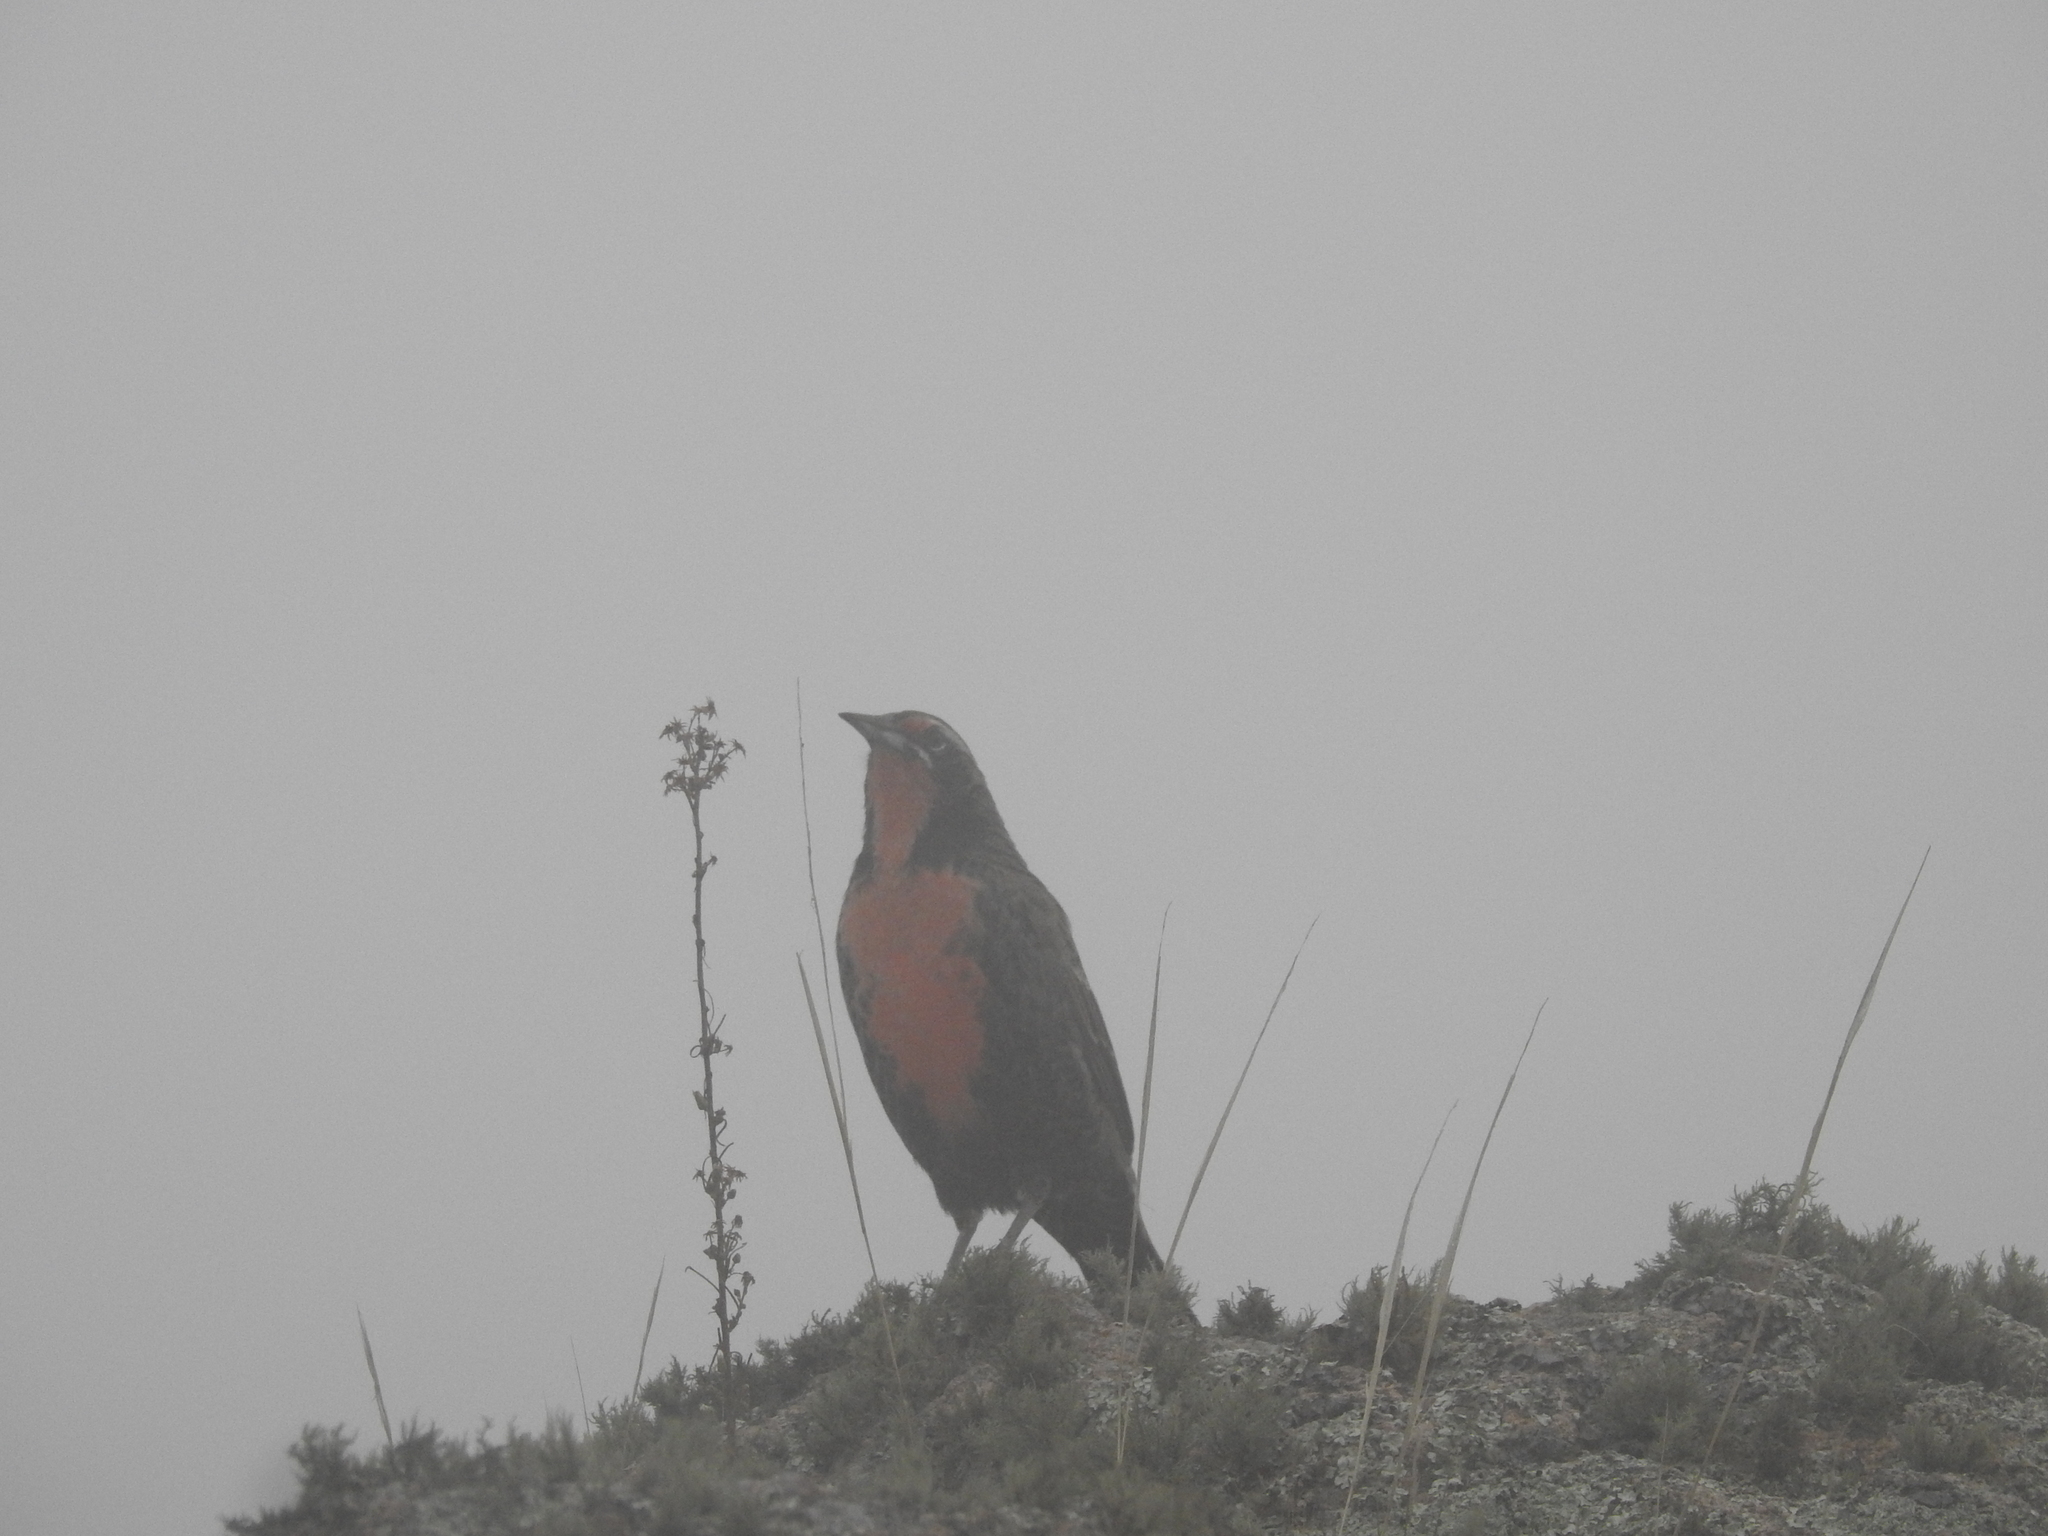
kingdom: Animalia
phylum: Chordata
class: Aves
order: Passeriformes
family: Icteridae
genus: Sturnella
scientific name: Sturnella loyca
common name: Long-tailed meadowlark
